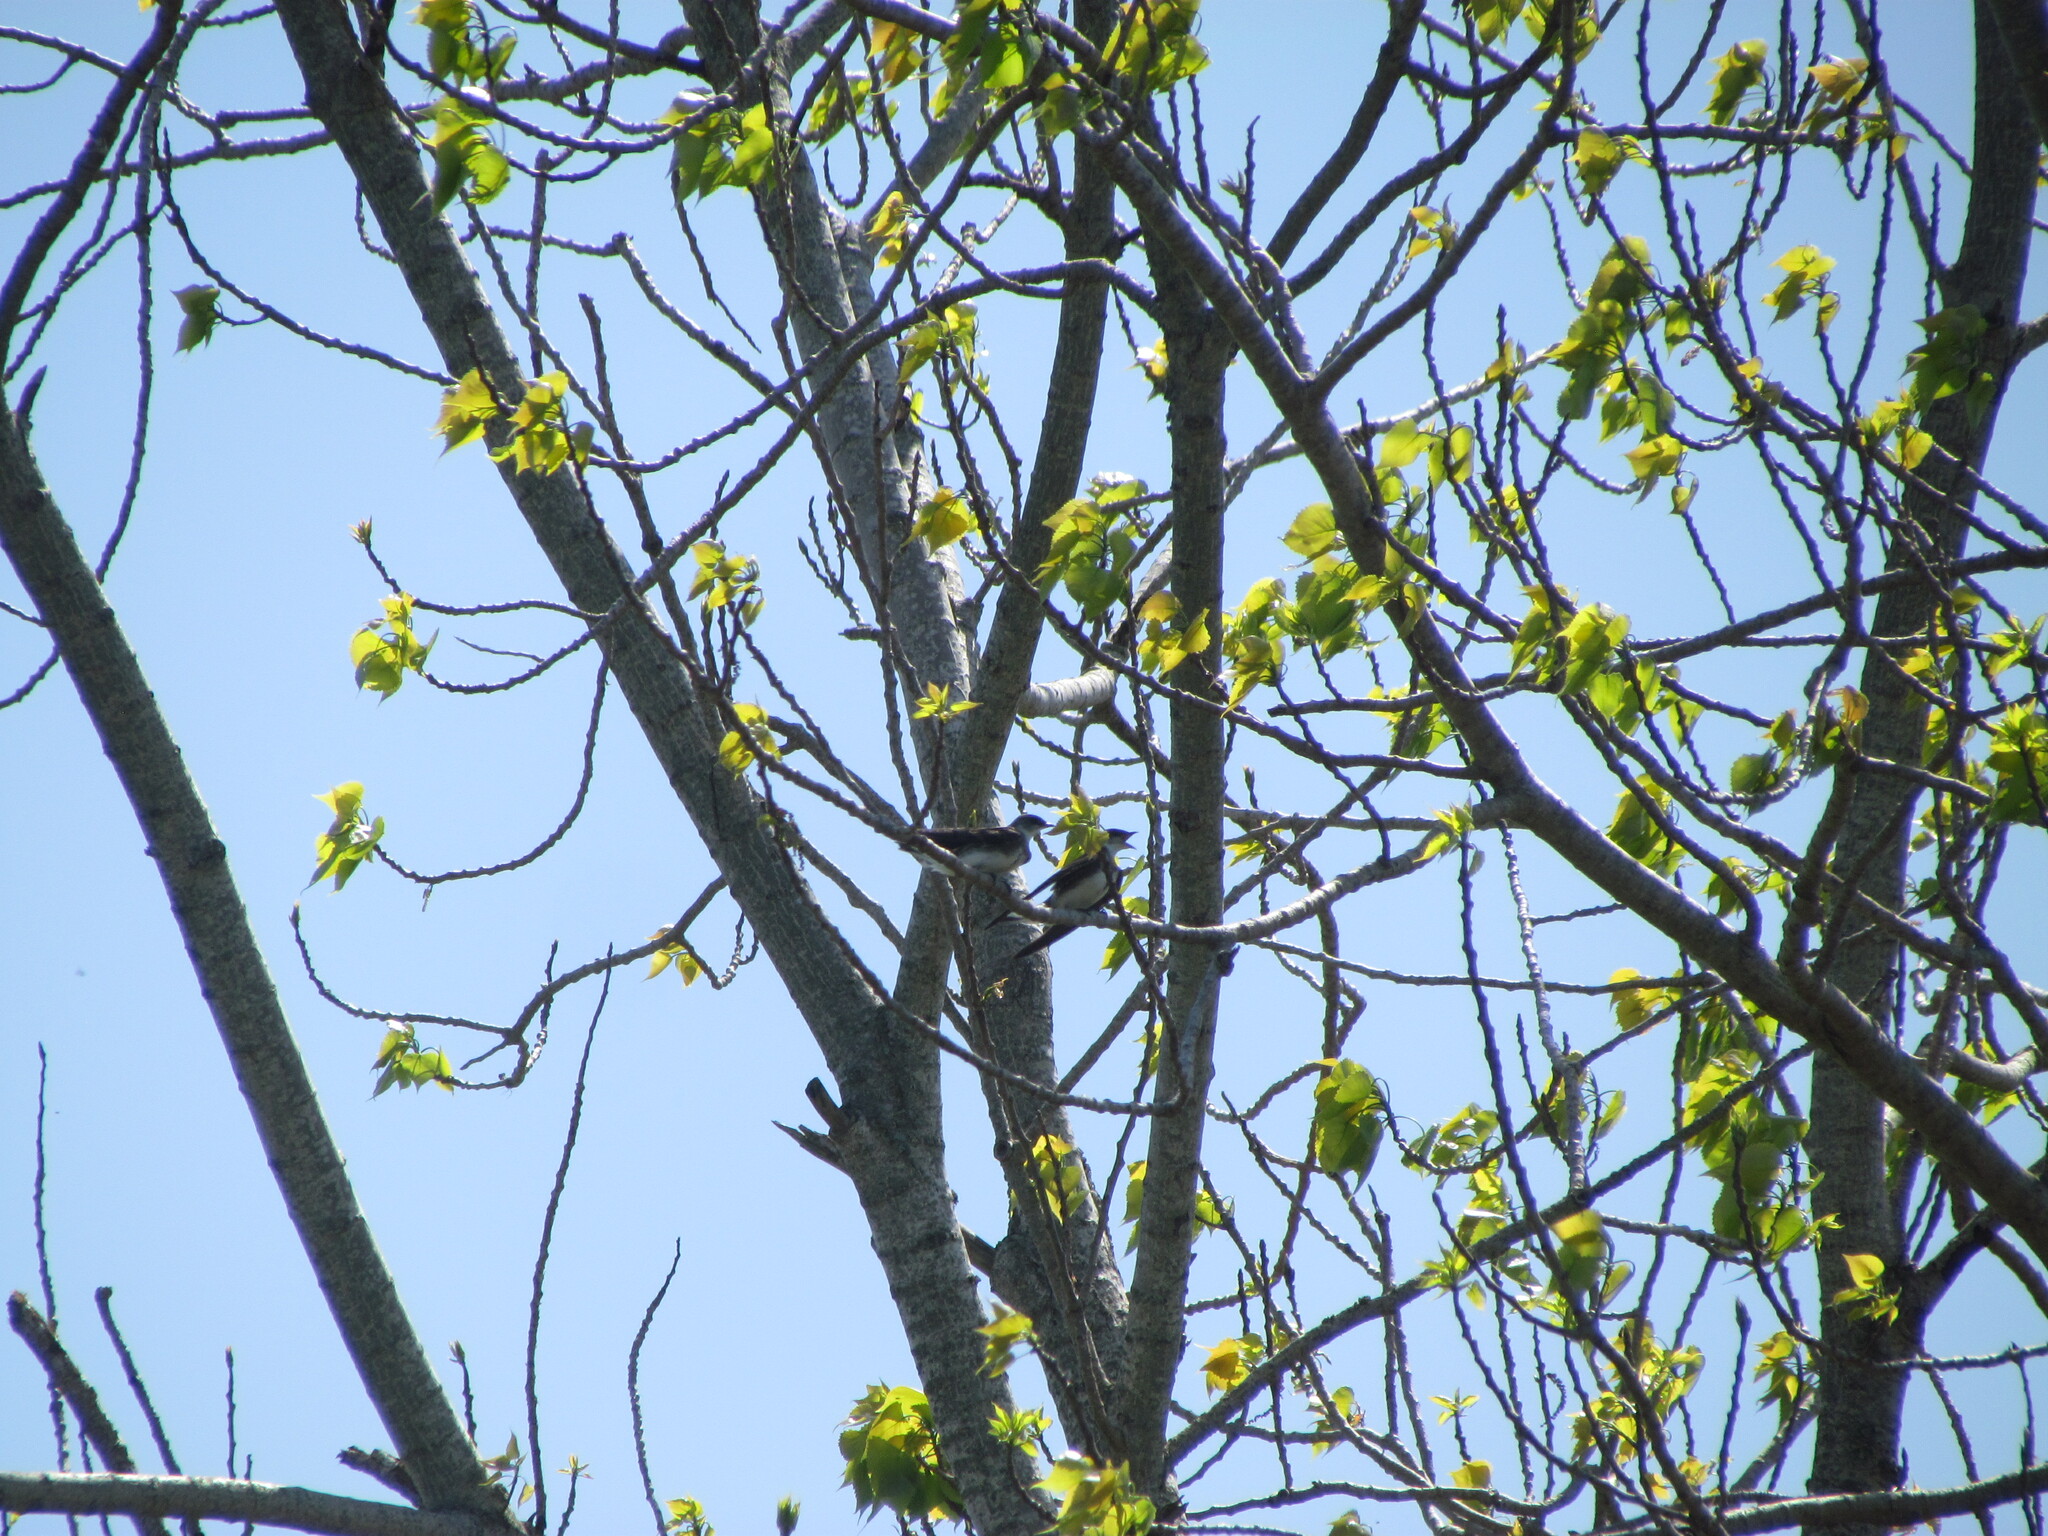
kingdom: Animalia
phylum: Chordata
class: Aves
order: Passeriformes
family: Hirundinidae
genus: Progne
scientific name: Progne tapera
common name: Brown-chested martin
